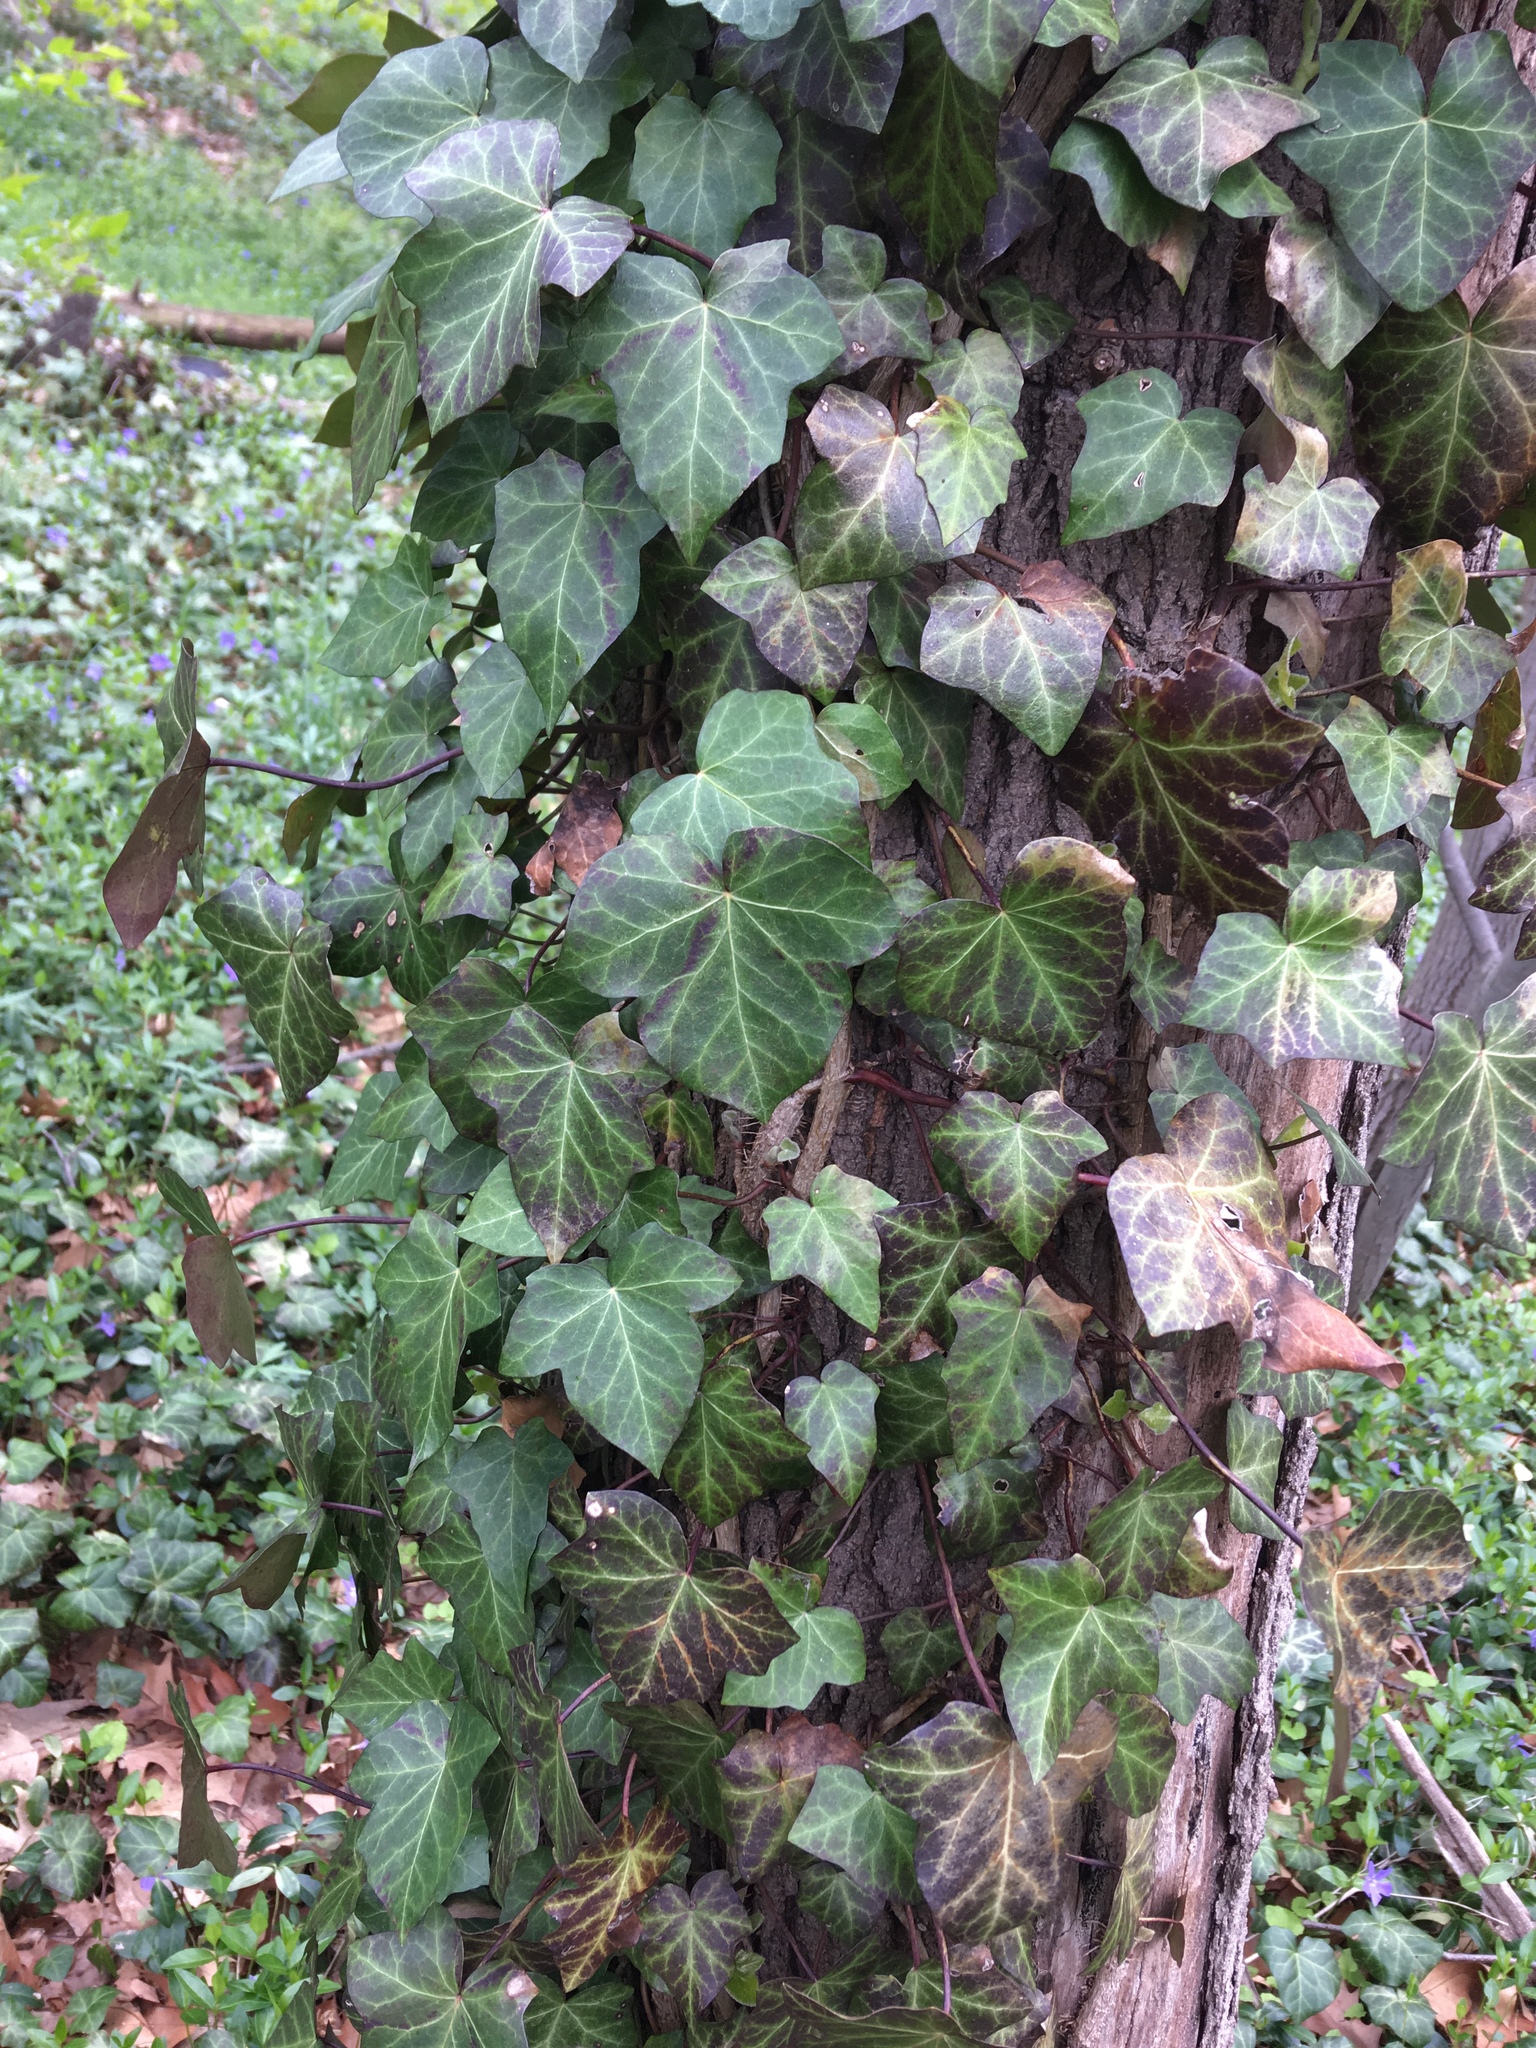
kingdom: Plantae
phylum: Tracheophyta
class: Magnoliopsida
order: Apiales
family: Araliaceae
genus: Hedera
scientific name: Hedera helix
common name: Ivy
